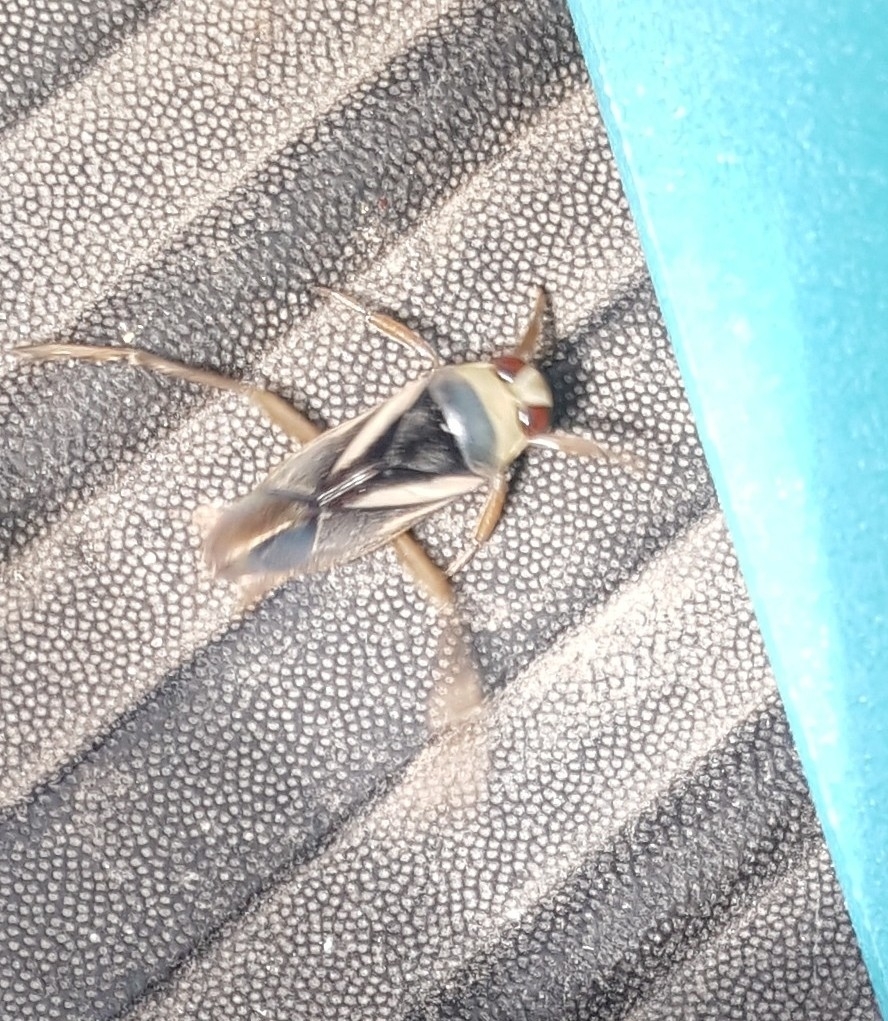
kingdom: Animalia
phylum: Arthropoda
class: Insecta
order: Hemiptera
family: Notonectidae
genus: Notonecta
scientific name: Notonecta obliqua
